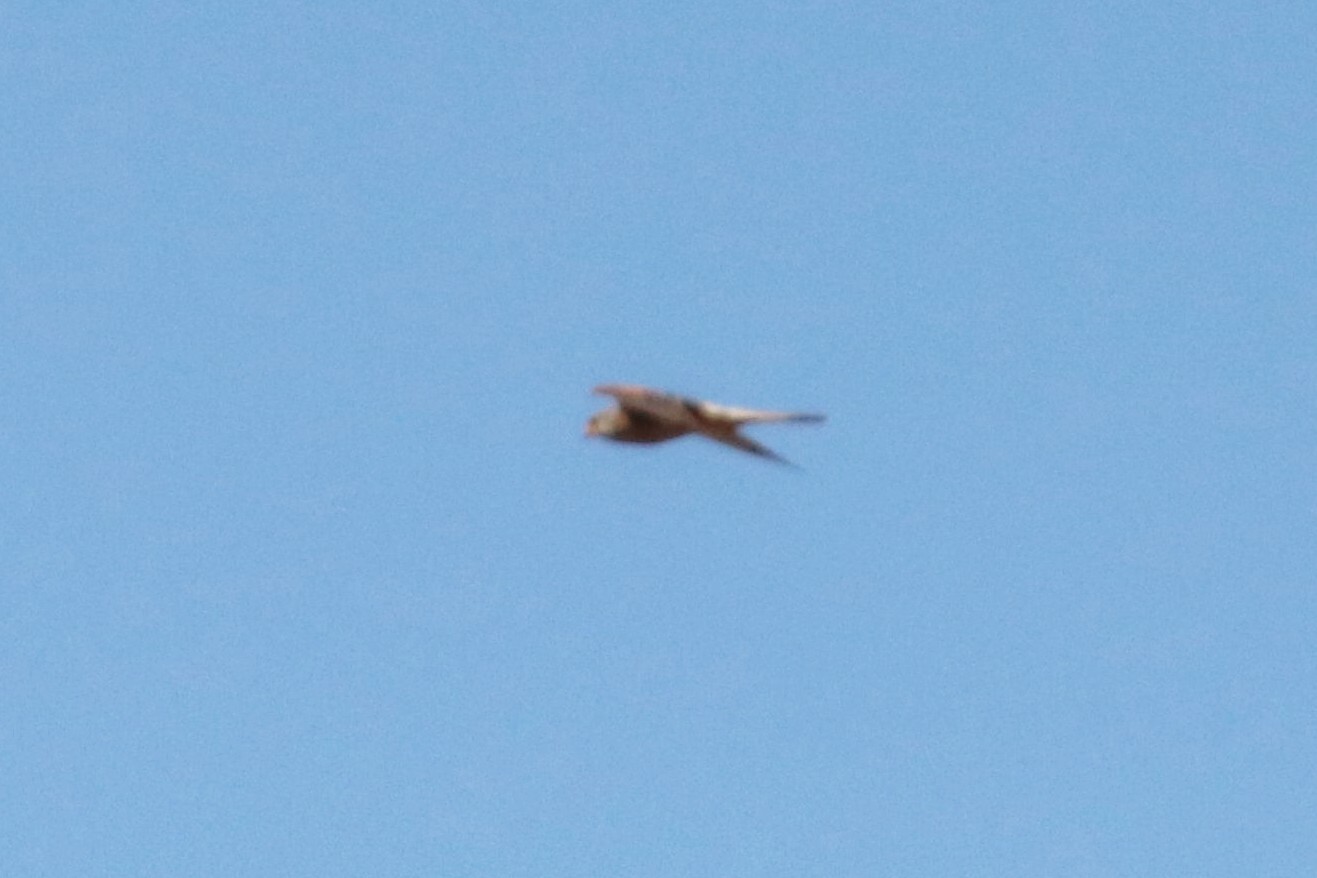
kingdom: Animalia
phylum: Chordata
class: Aves
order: Falconiformes
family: Falconidae
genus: Falco
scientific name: Falco tinnunculus
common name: Common kestrel
